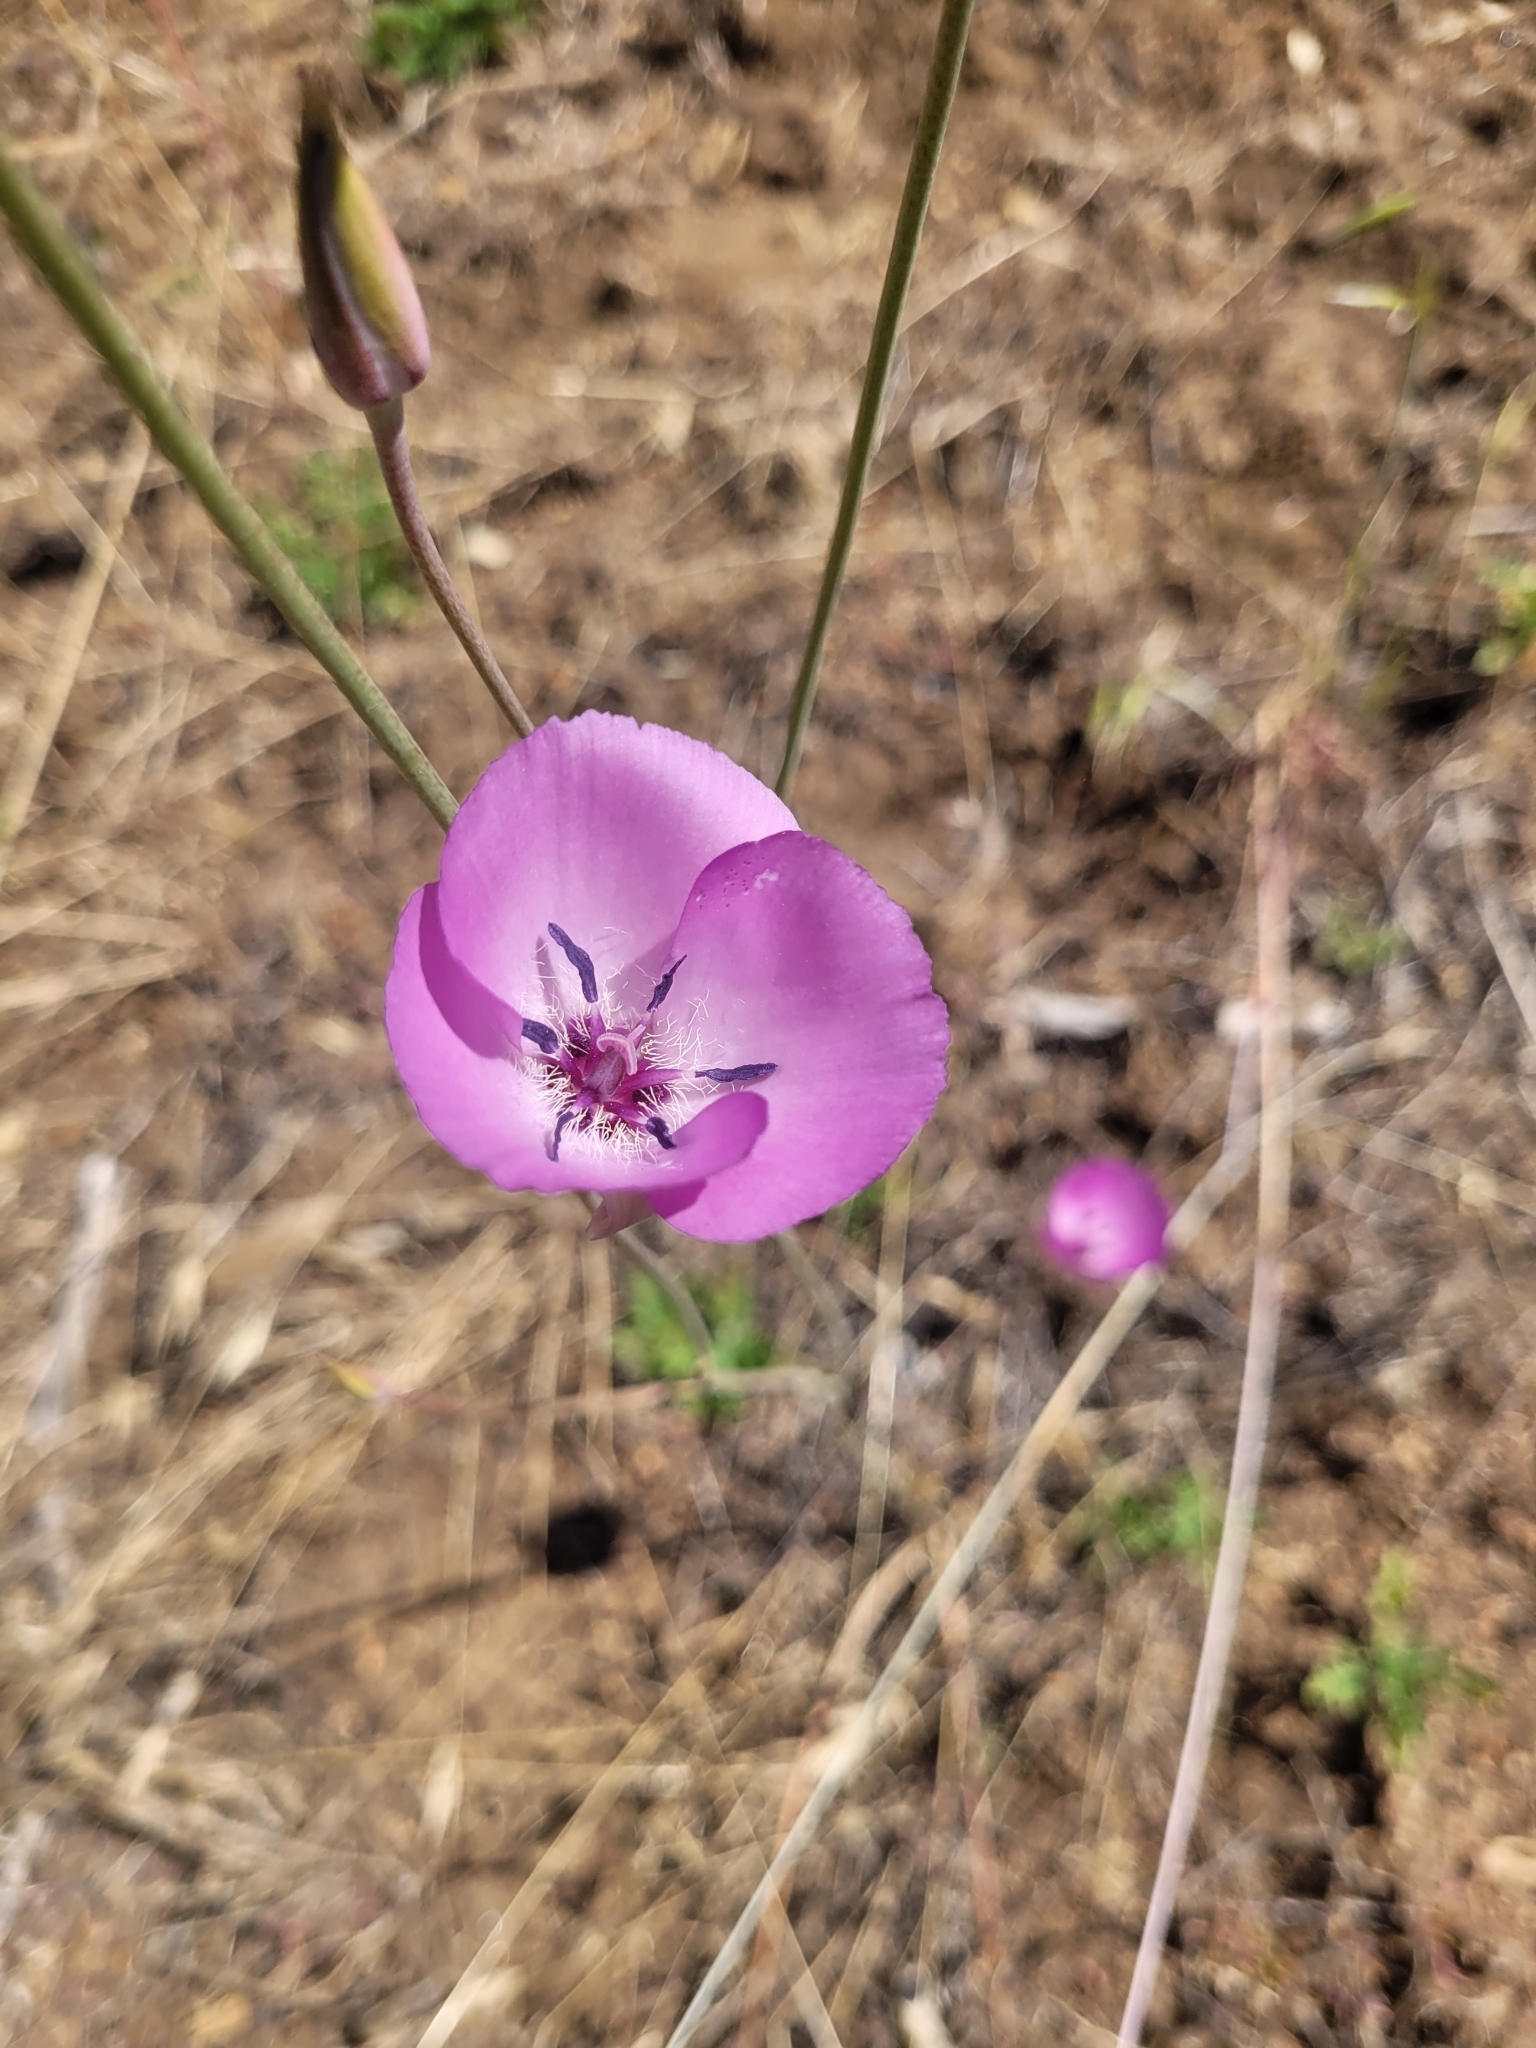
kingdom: Plantae
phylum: Tracheophyta
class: Liliopsida
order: Liliales
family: Liliaceae
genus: Calochortus
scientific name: Calochortus splendens
